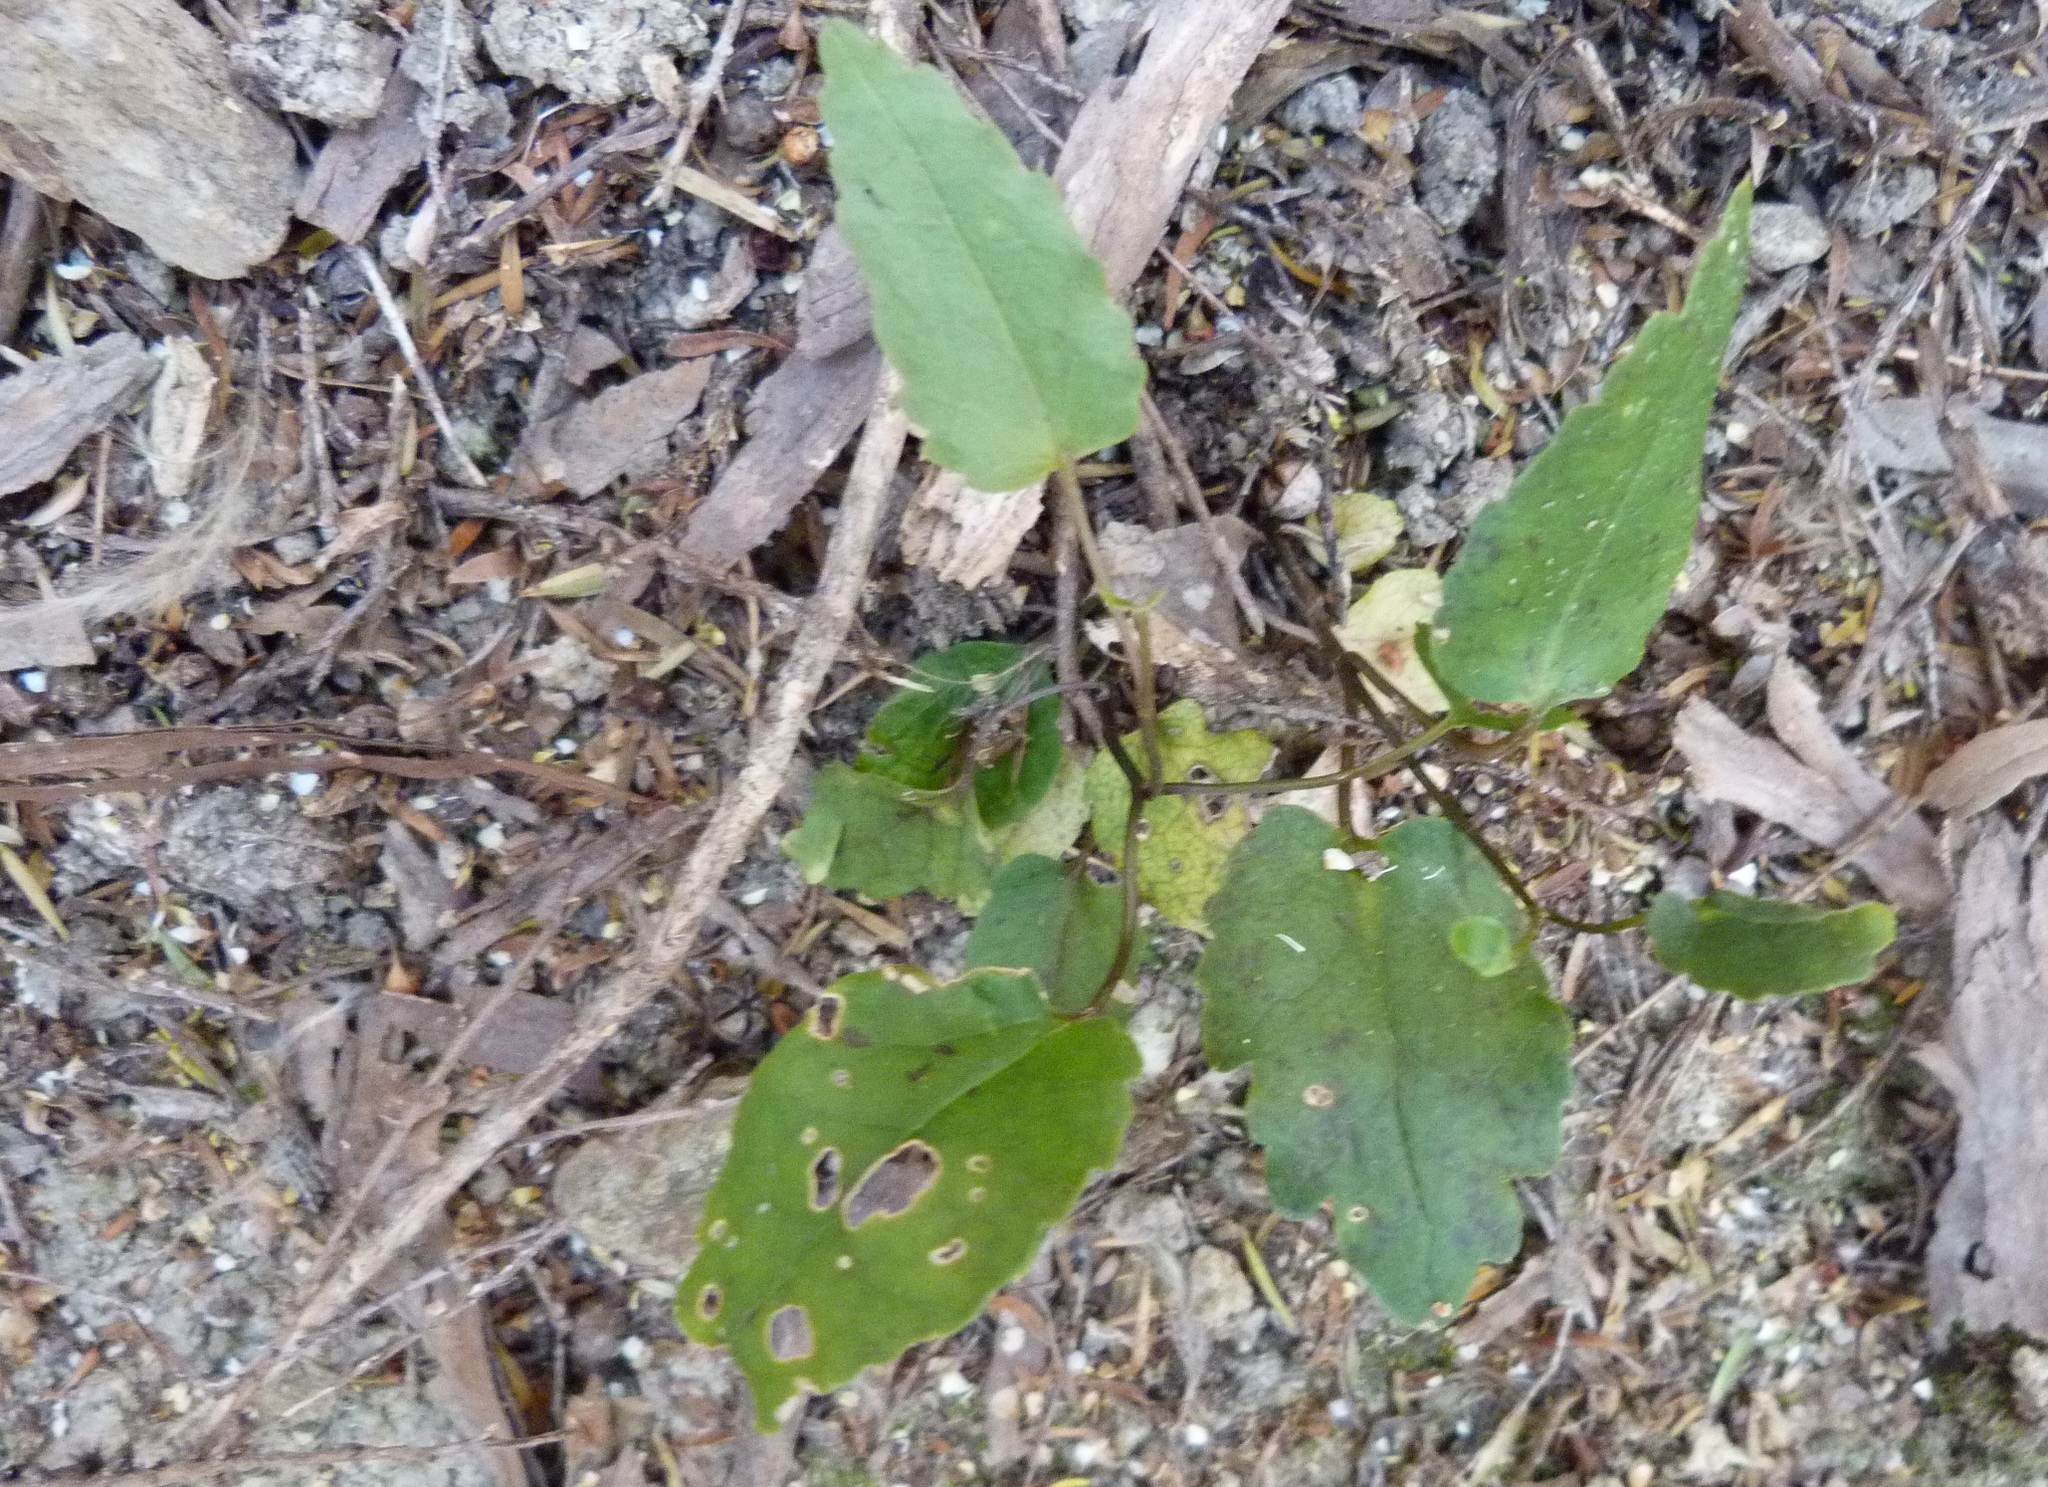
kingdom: Plantae
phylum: Tracheophyta
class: Magnoliopsida
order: Ranunculales
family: Ranunculaceae
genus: Clematis
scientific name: Clematis paniculata
